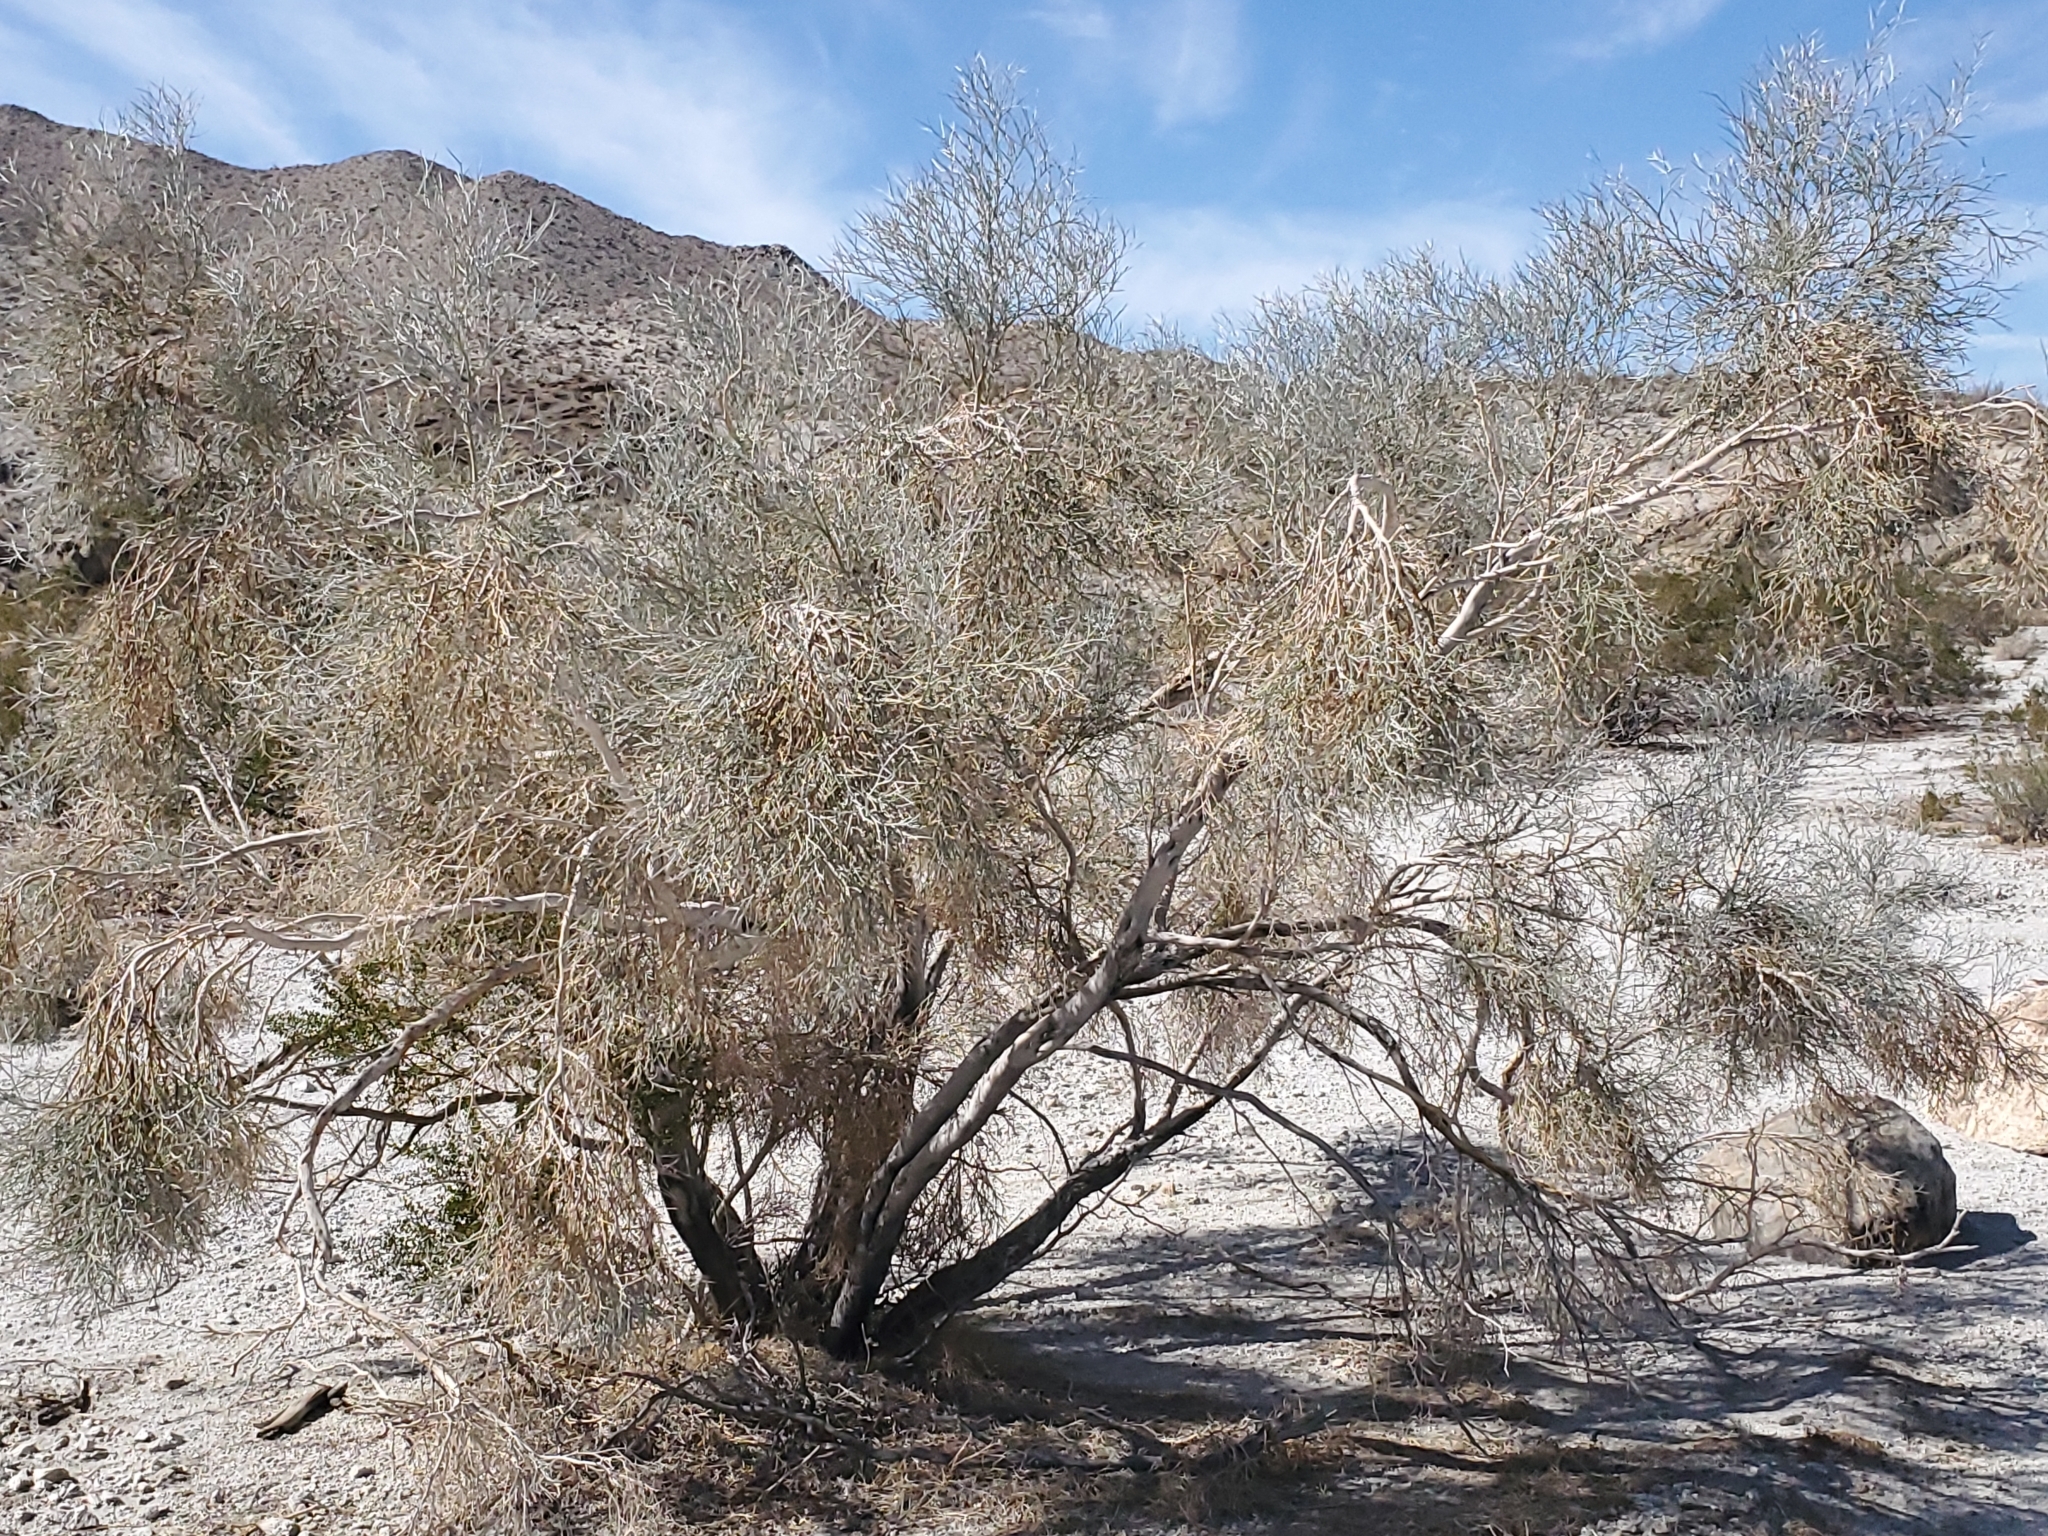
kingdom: Plantae
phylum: Tracheophyta
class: Magnoliopsida
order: Fabales
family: Fabaceae
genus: Psorothamnus
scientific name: Psorothamnus spinosus
